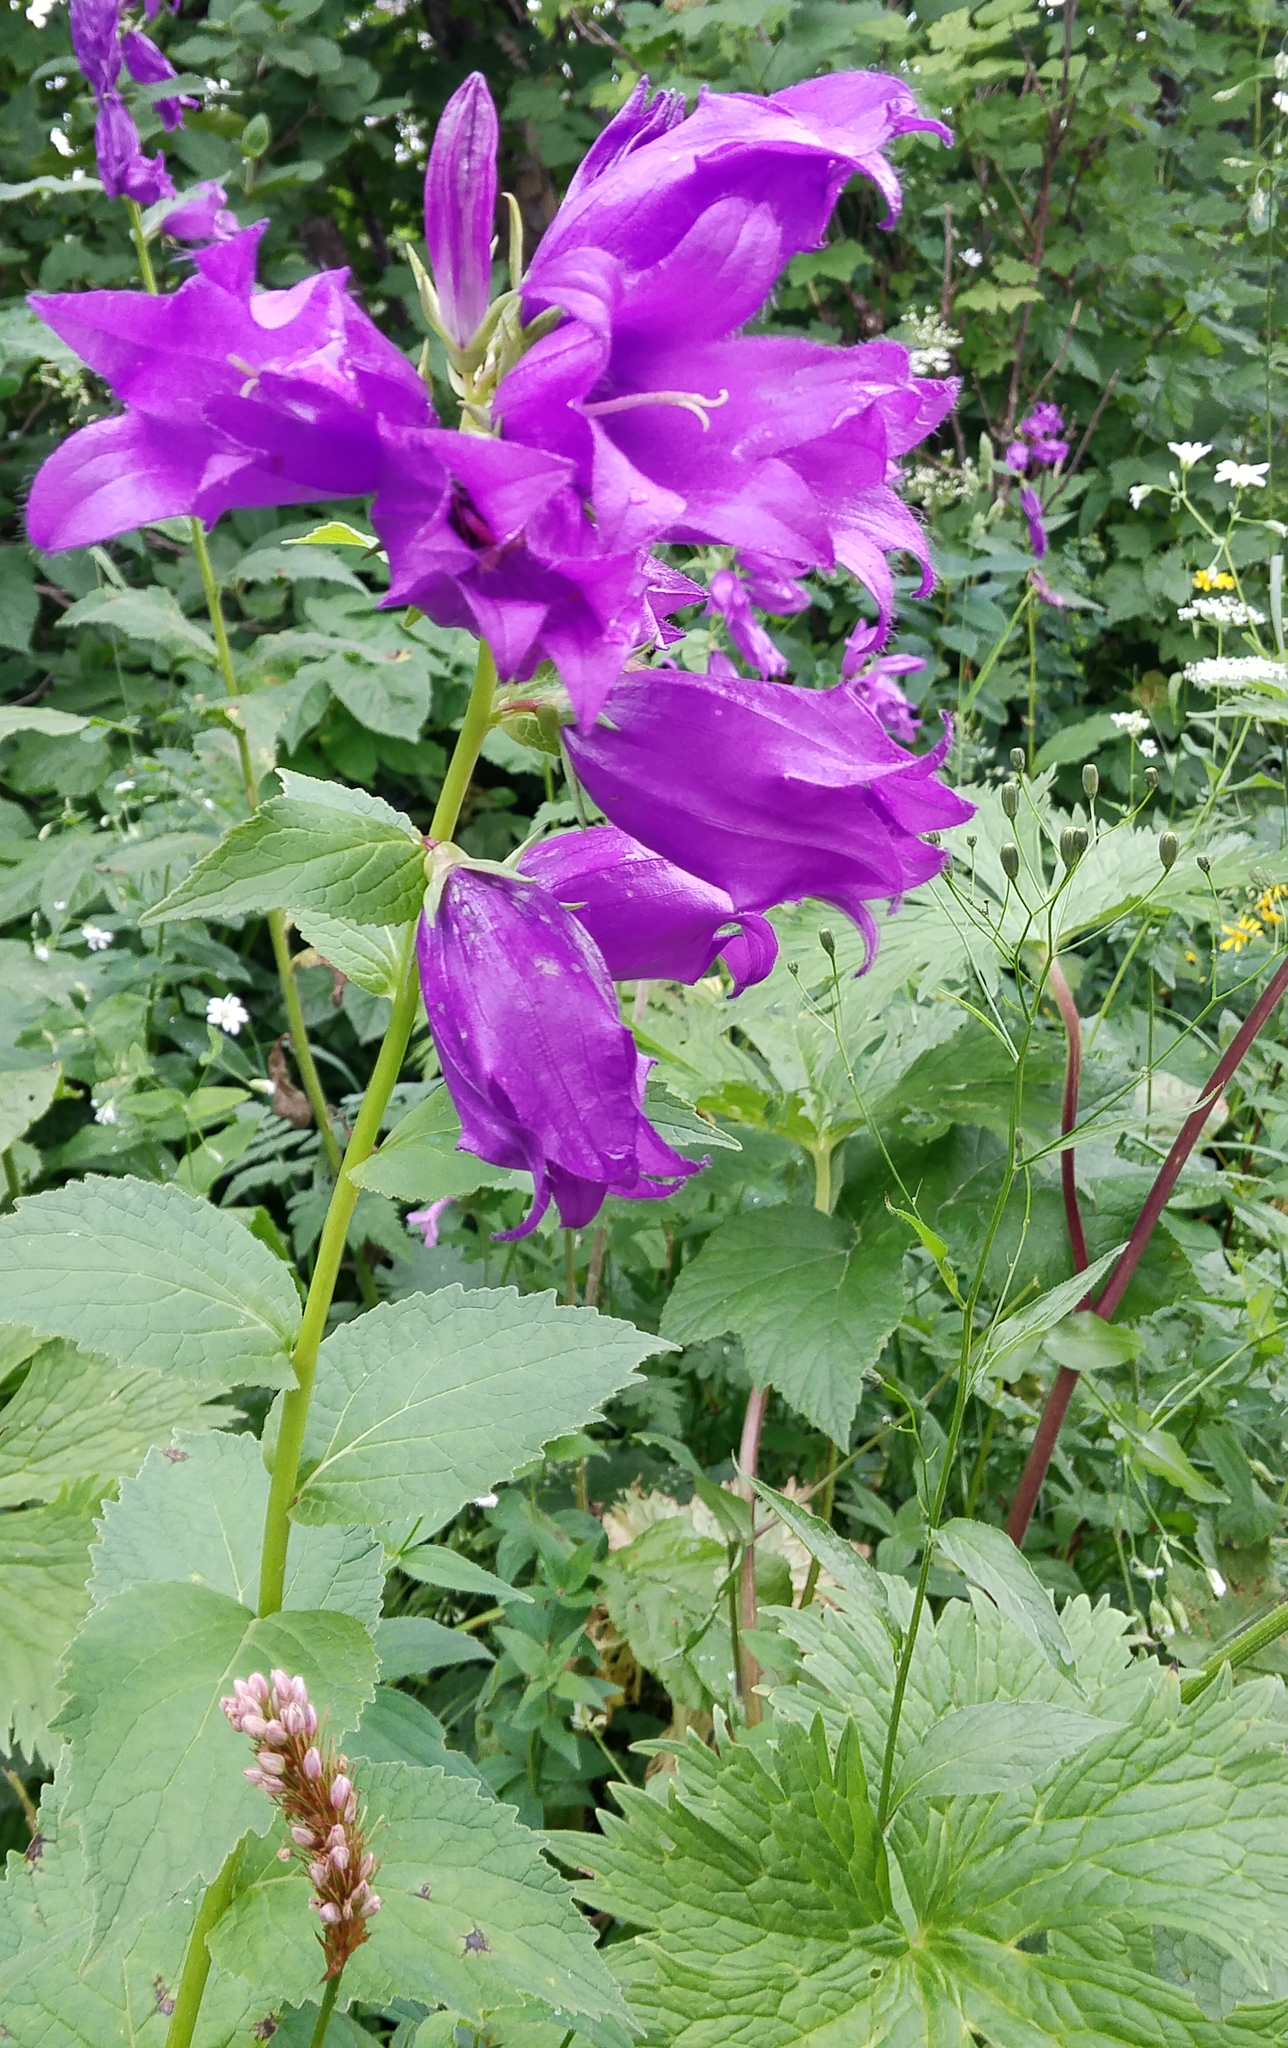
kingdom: Plantae
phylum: Tracheophyta
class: Magnoliopsida
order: Asterales
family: Campanulaceae
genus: Campanula
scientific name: Campanula latifolia
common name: Giant bellflower
